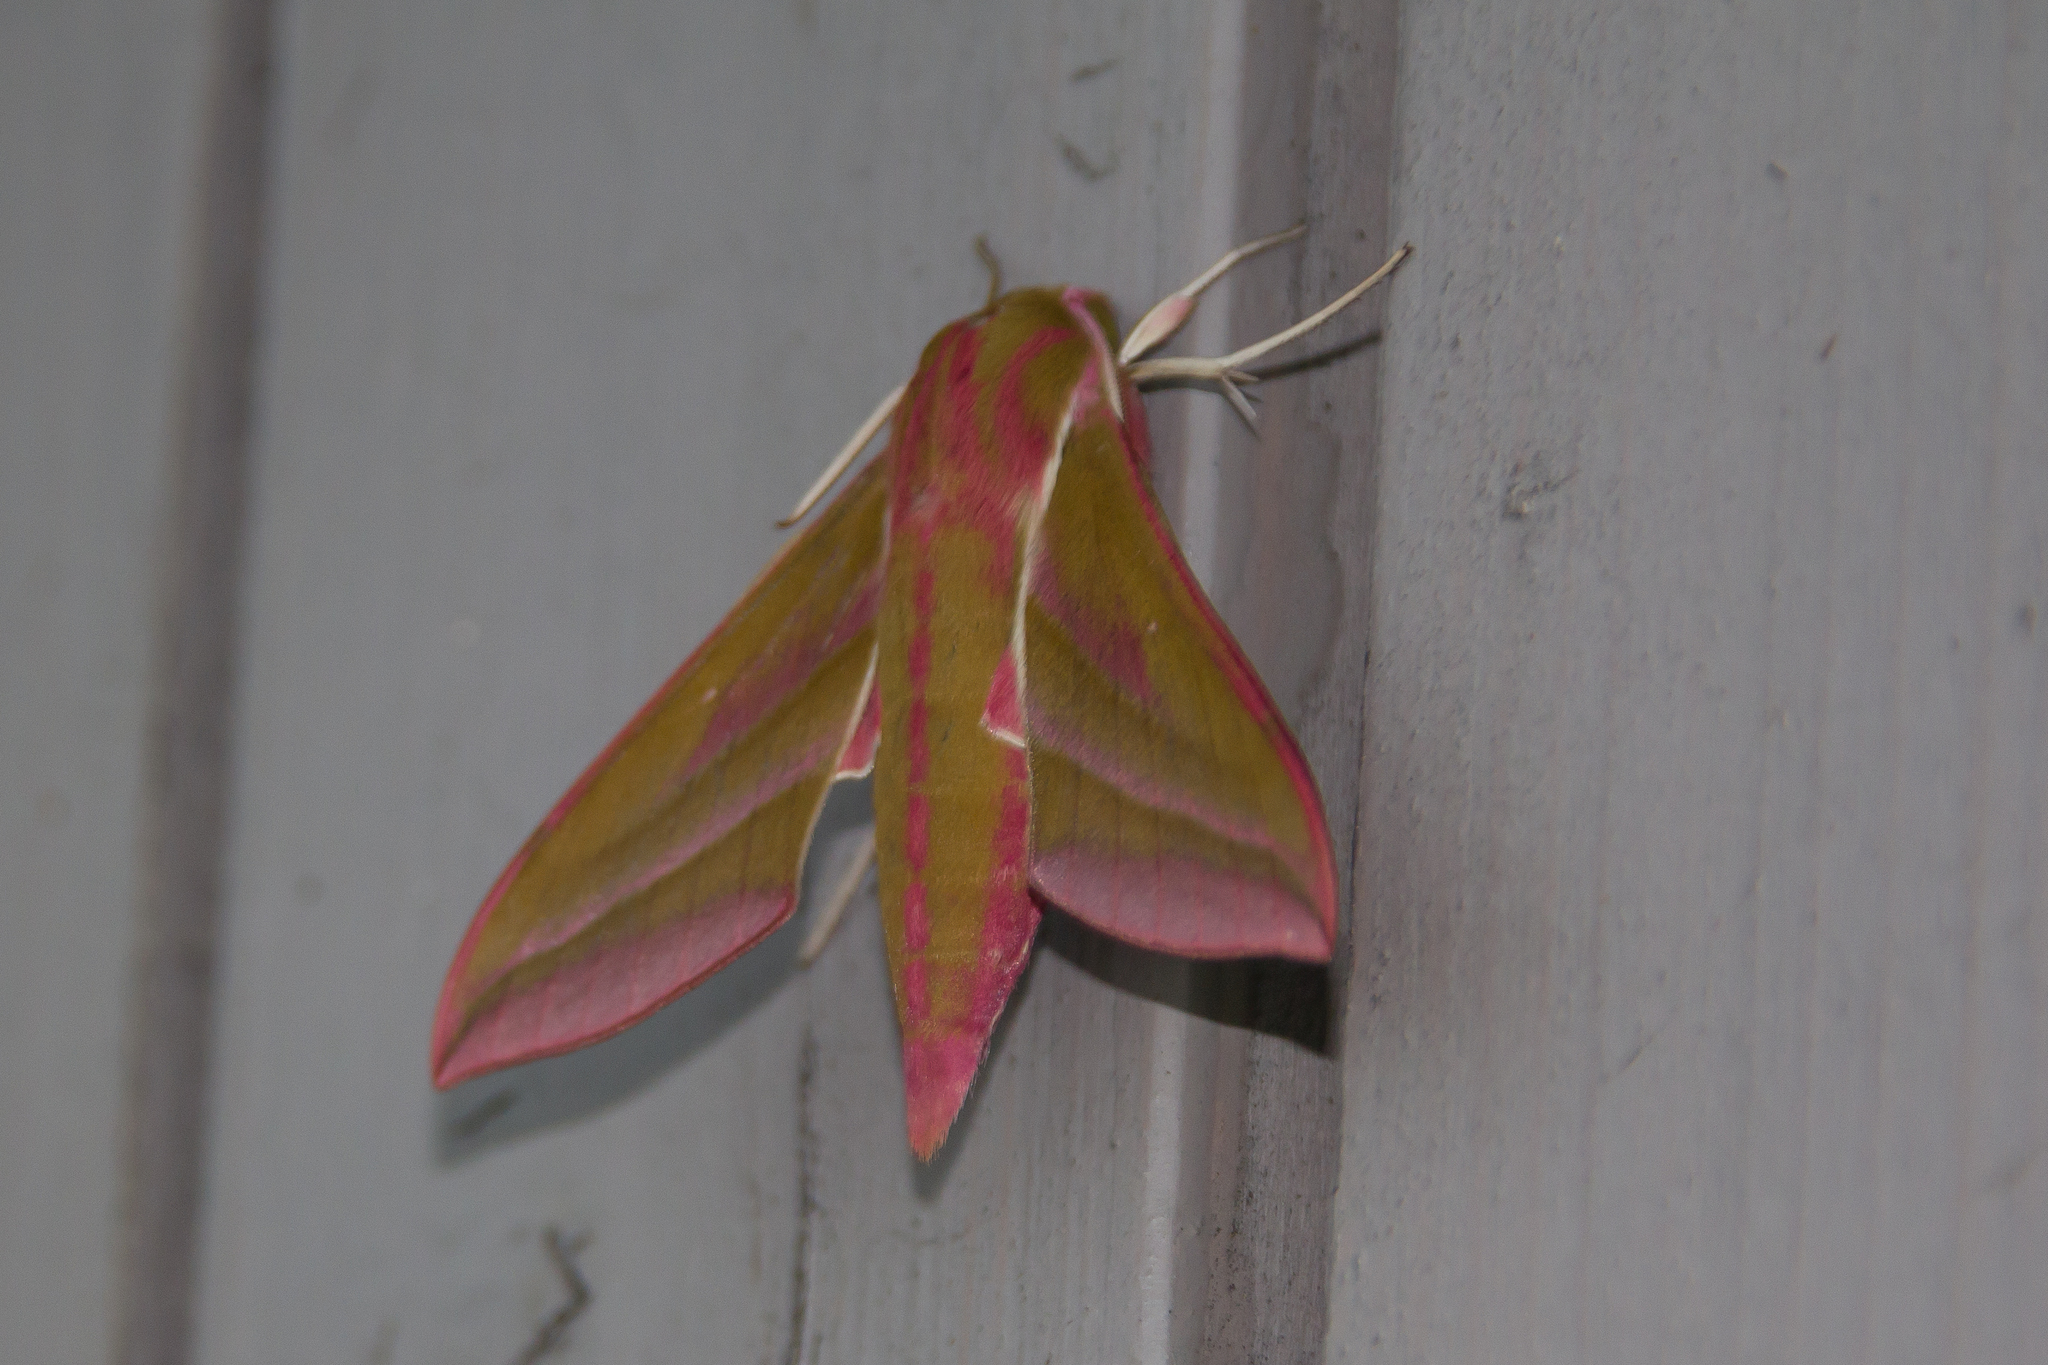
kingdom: Animalia
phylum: Arthropoda
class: Insecta
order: Lepidoptera
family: Sphingidae
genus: Deilephila
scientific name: Deilephila elpenor
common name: Elephant hawk-moth
